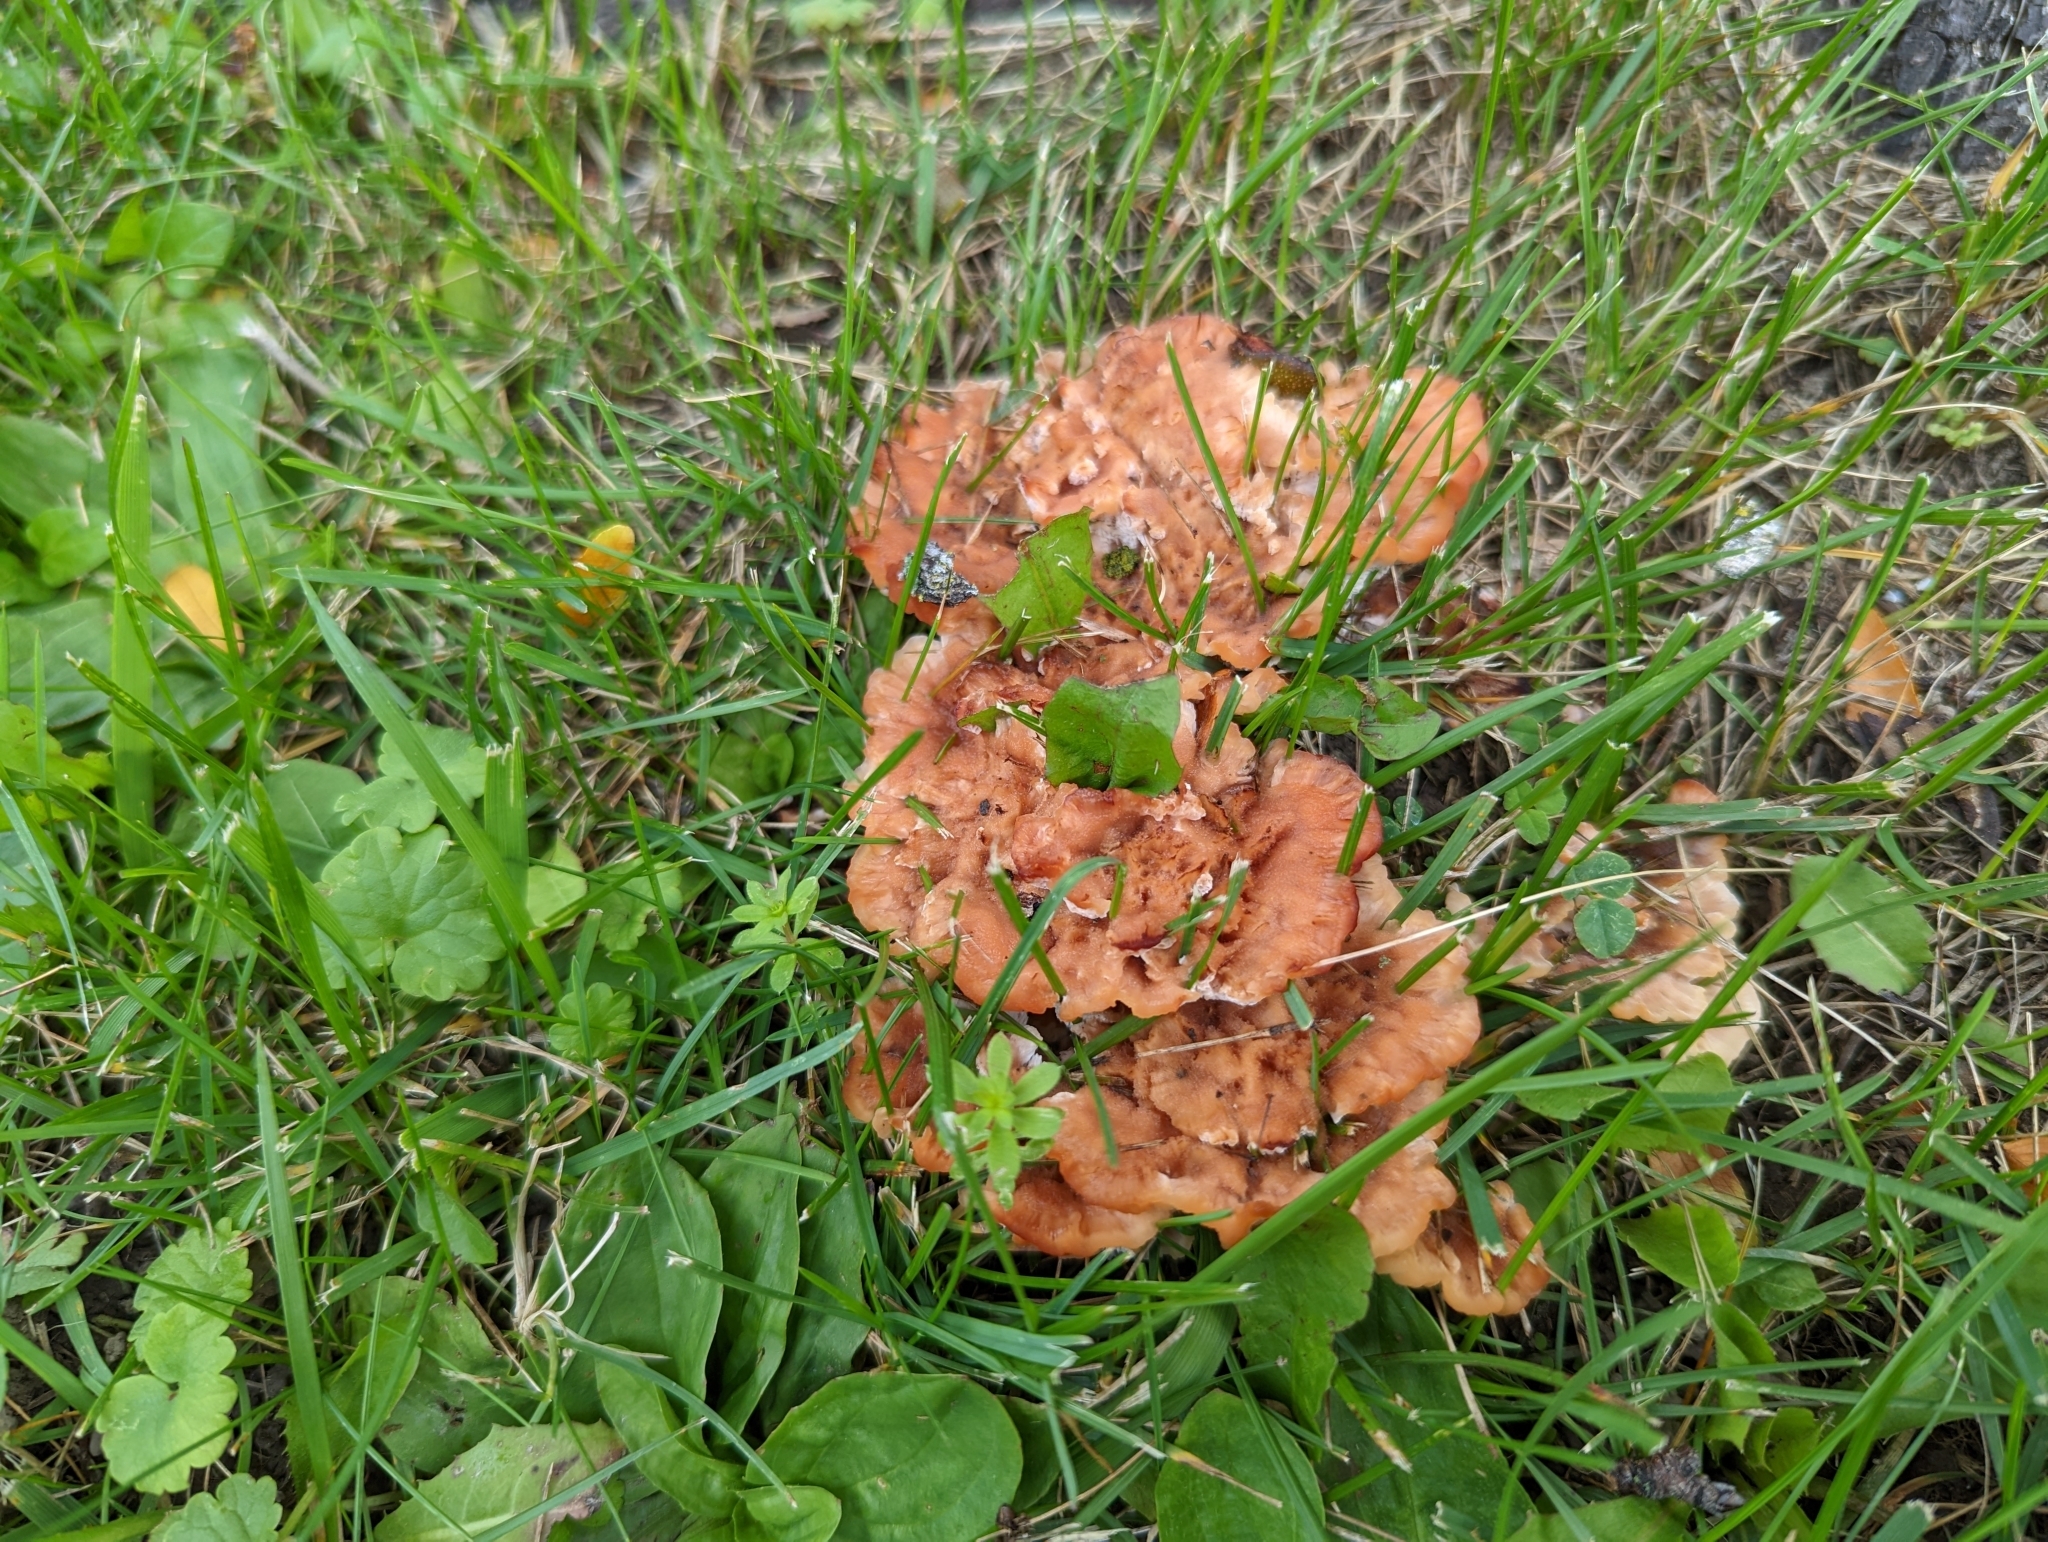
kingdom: Fungi
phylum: Basidiomycota
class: Agaricomycetes
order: Polyporales
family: Podoscyphaceae
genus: Abortiporus
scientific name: Abortiporus biennis
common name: Blushing rosette
